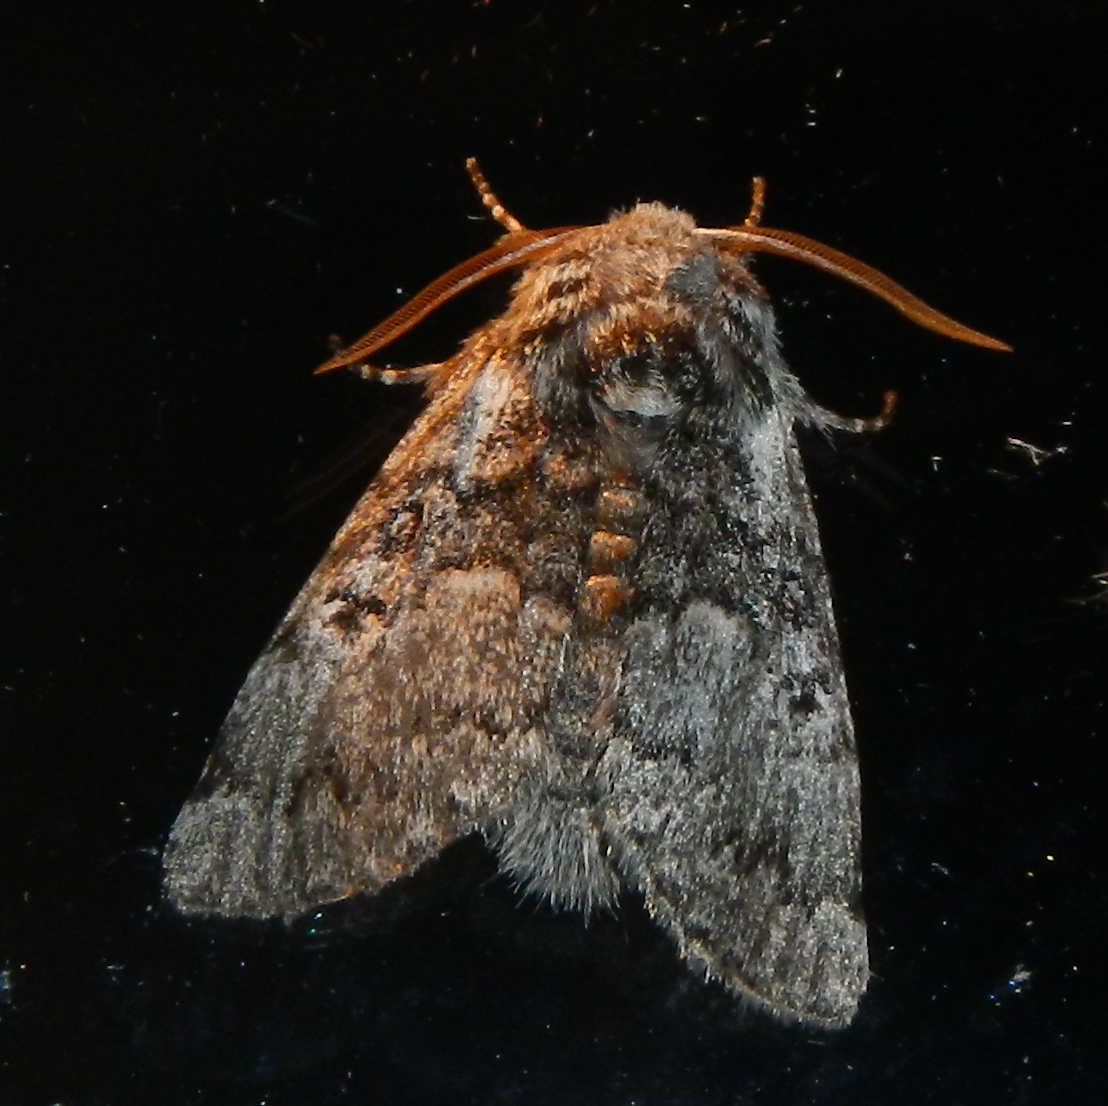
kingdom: Animalia
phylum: Arthropoda
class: Insecta
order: Lepidoptera
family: Noctuidae
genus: Colocasia
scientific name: Colocasia propinquilinea
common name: Close-banded demas
